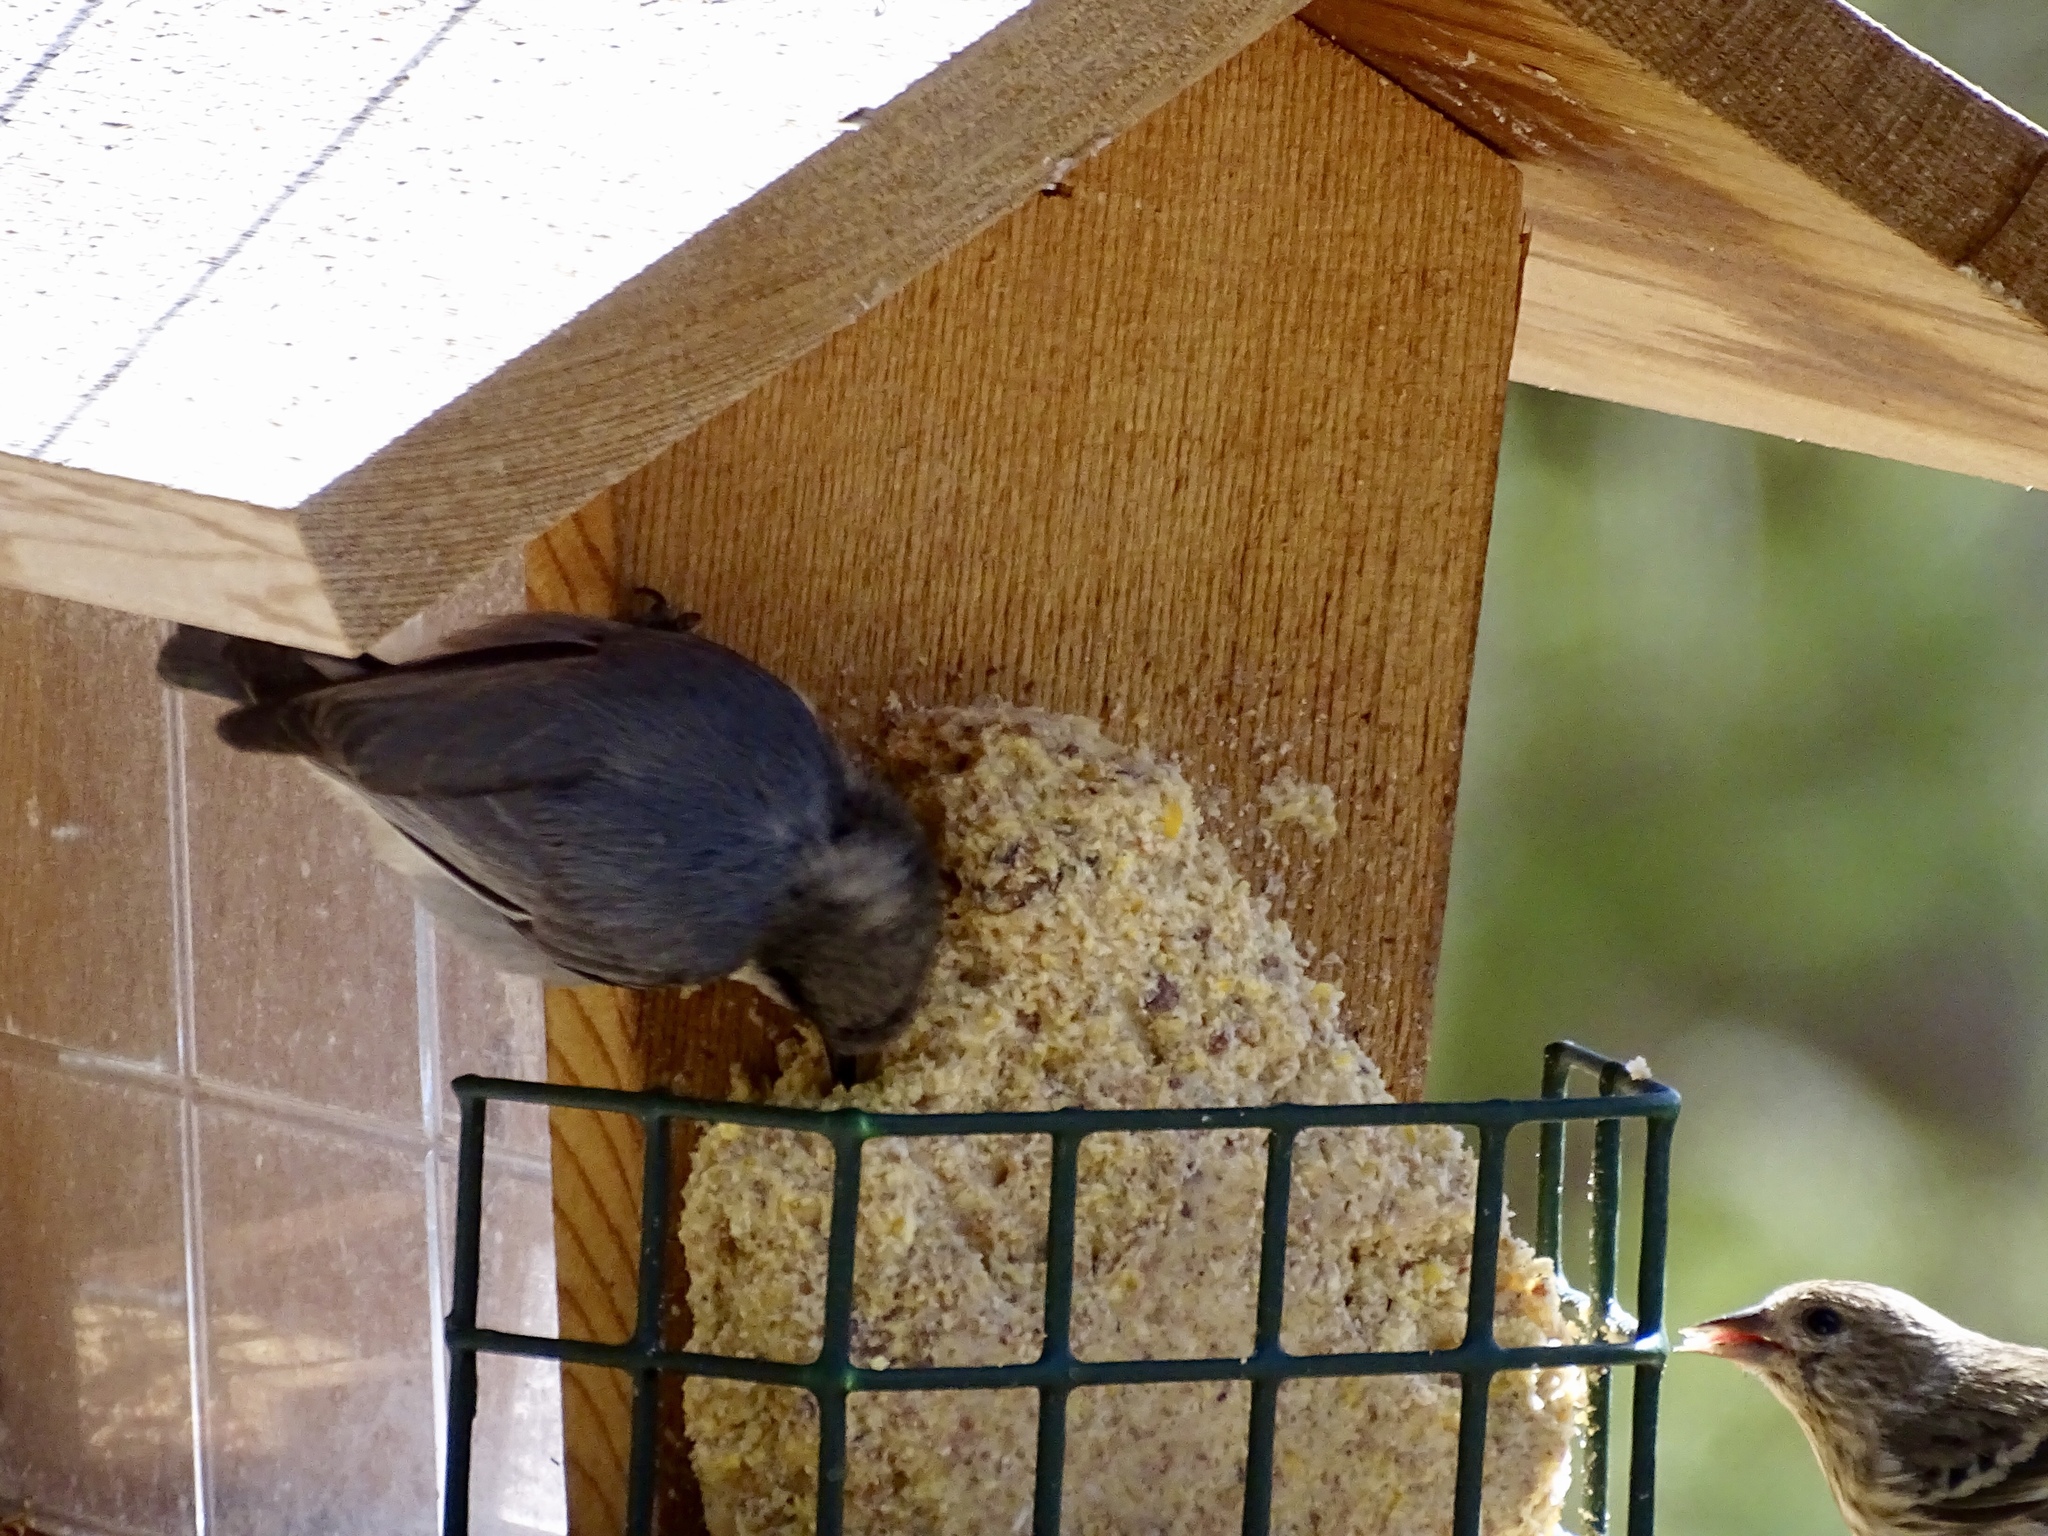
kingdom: Animalia
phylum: Chordata
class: Aves
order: Passeriformes
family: Sittidae
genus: Sitta
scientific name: Sitta pygmaea
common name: Pygmy nuthatch
